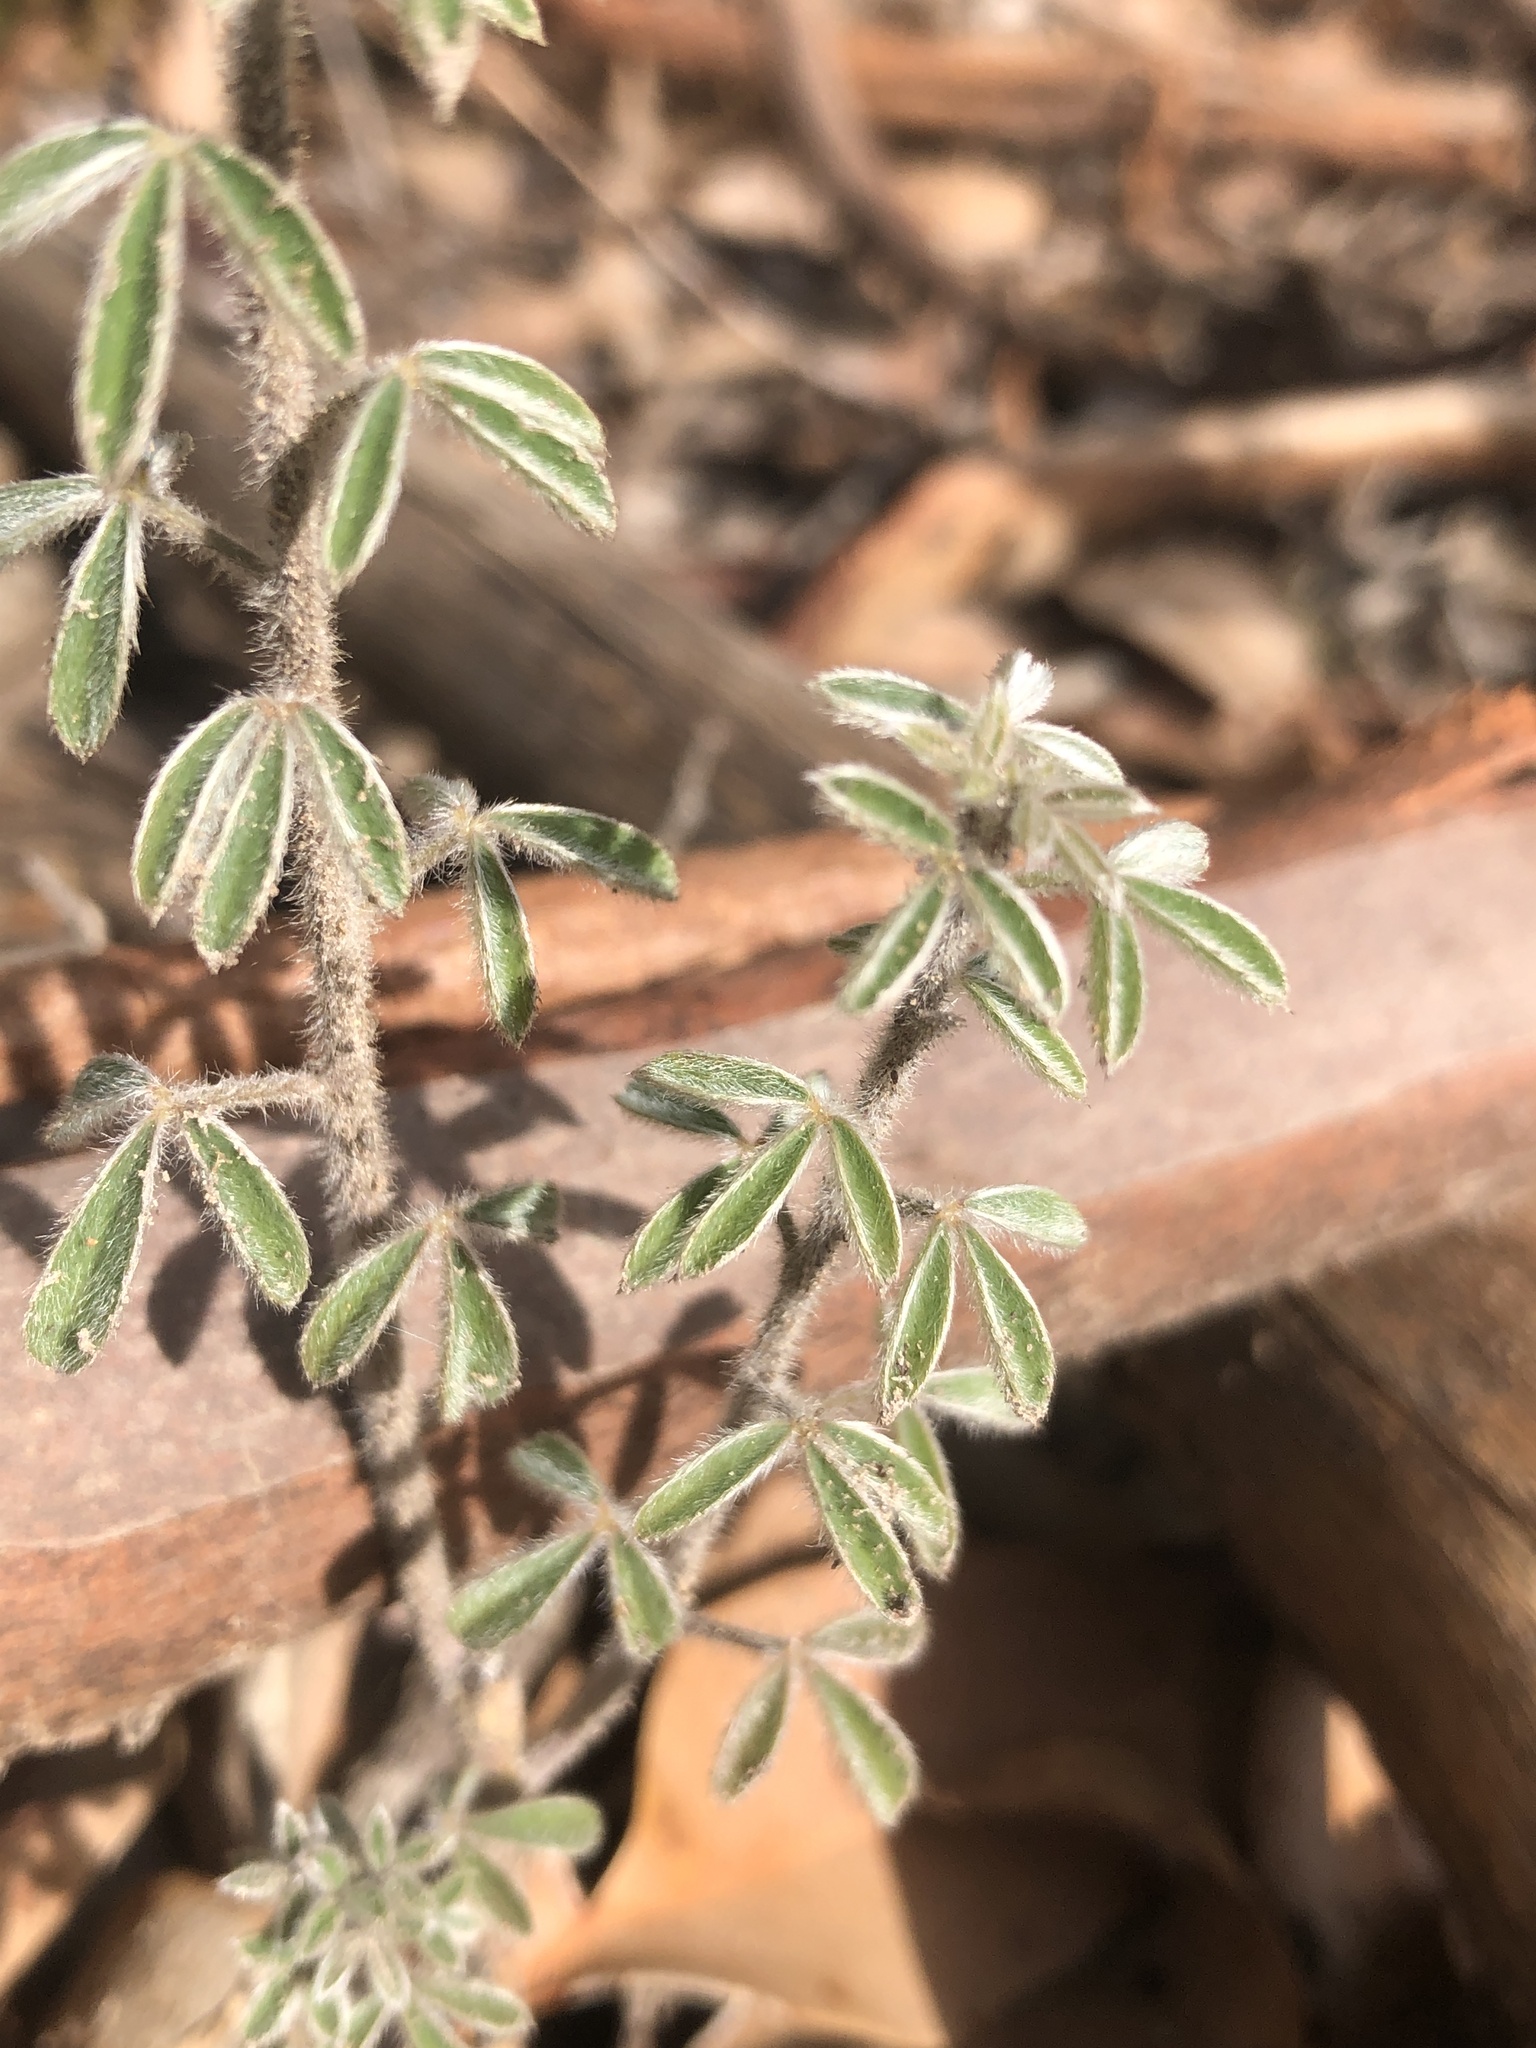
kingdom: Plantae
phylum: Tracheophyta
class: Magnoliopsida
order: Fabales
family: Fabaceae
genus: Chamaecytisus
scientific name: Chamaecytisus prolifer
